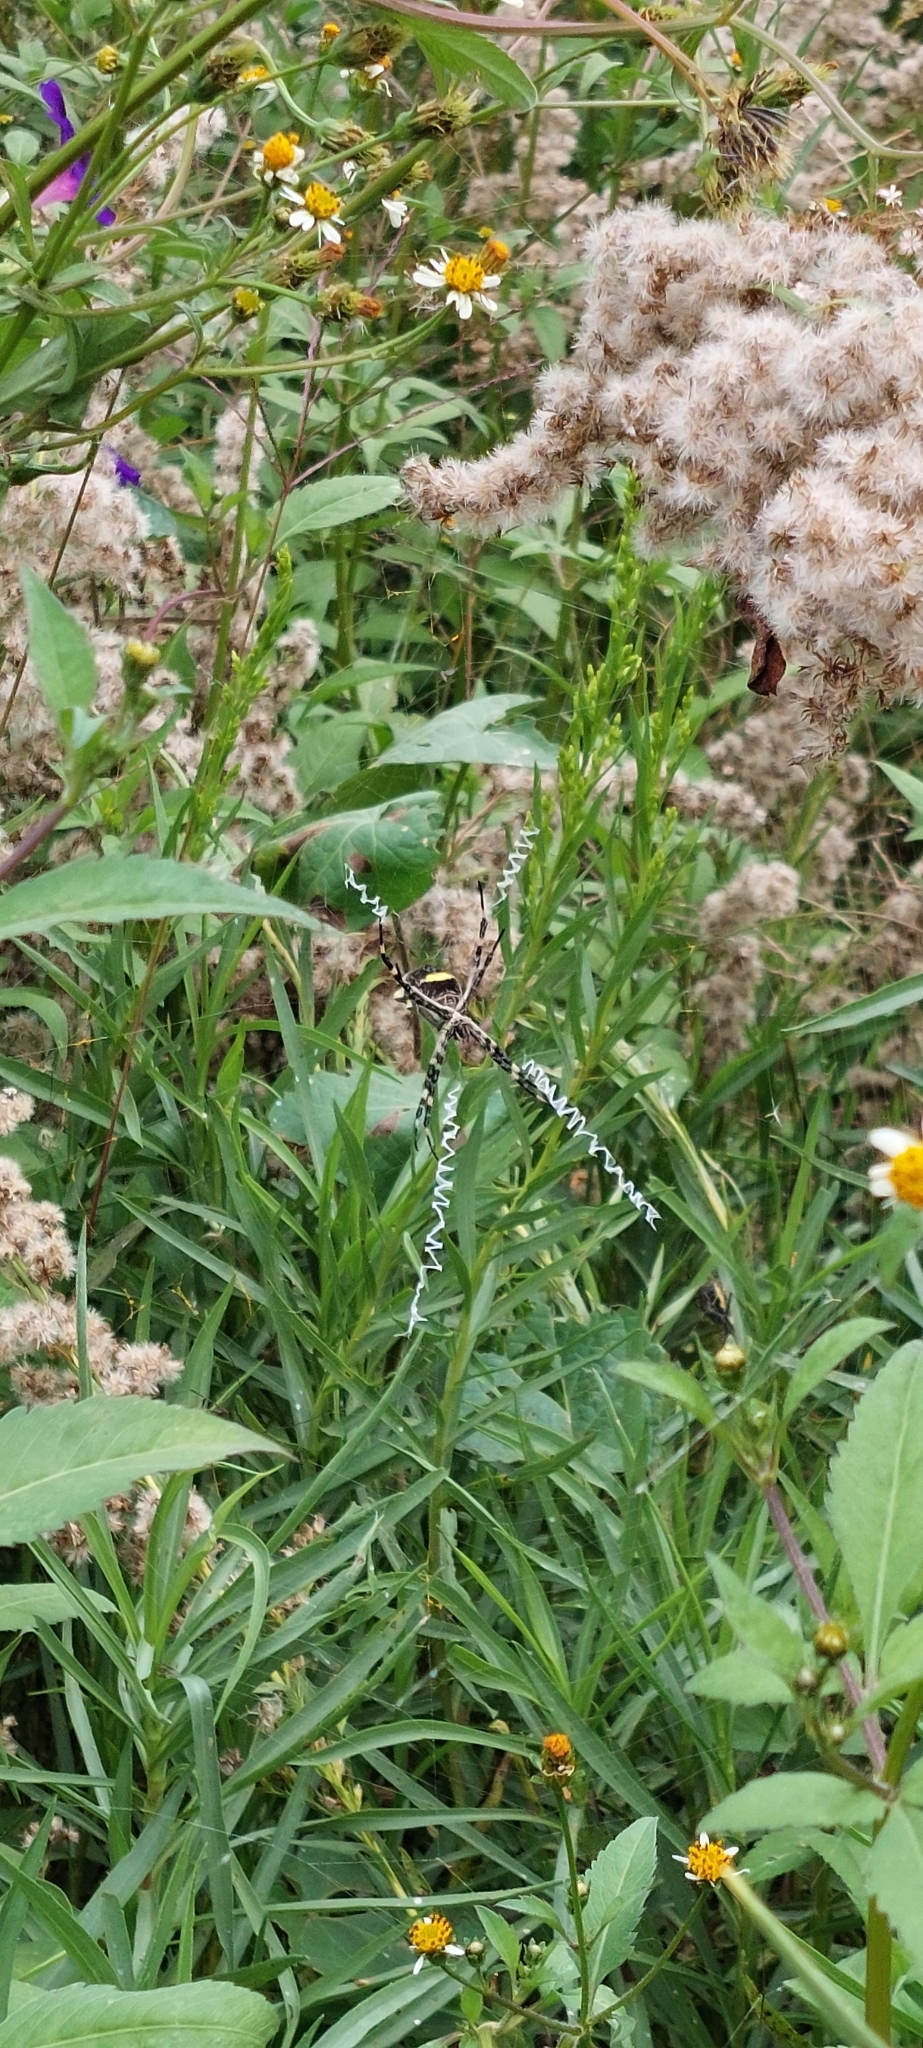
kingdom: Animalia
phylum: Arthropoda
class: Arachnida
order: Araneae
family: Araneidae
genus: Argiope
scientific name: Argiope argentata
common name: Orb weavers
